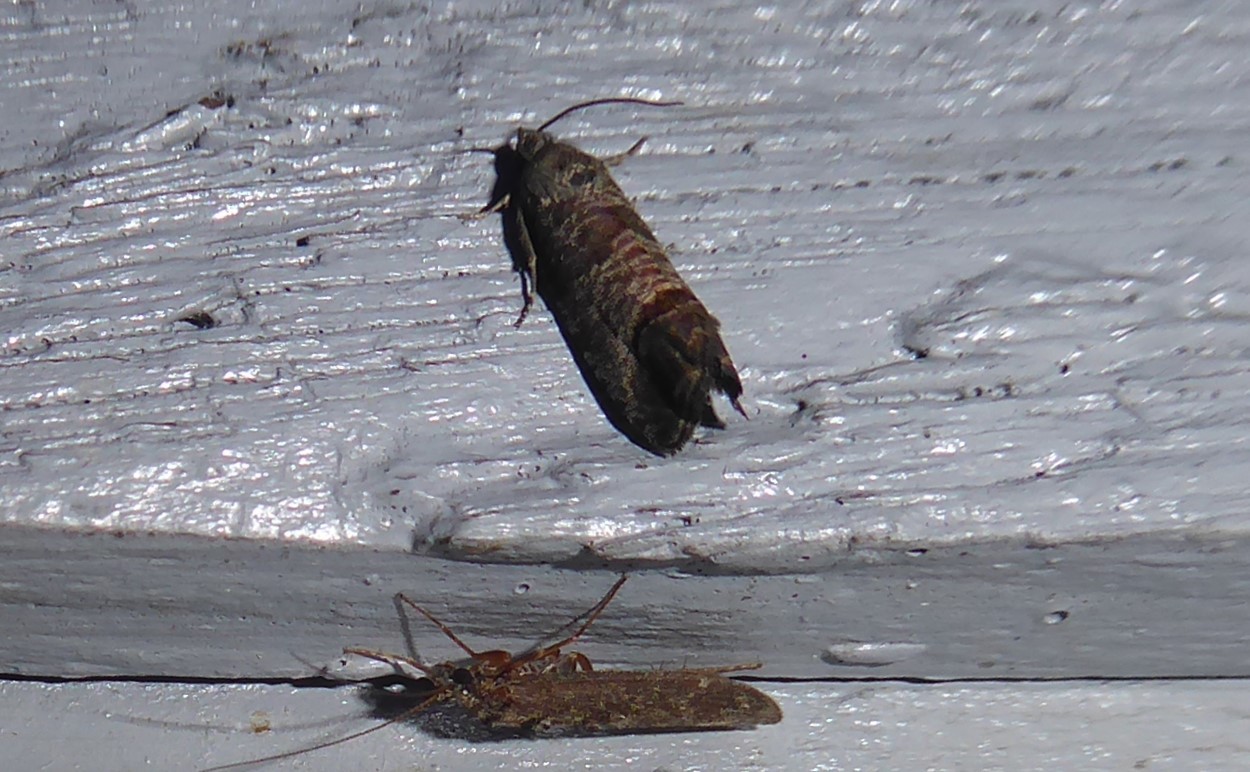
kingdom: Animalia
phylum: Arthropoda
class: Insecta
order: Lepidoptera
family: Tortricidae
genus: Cydia
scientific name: Cydia pomonella
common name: Codling moth
